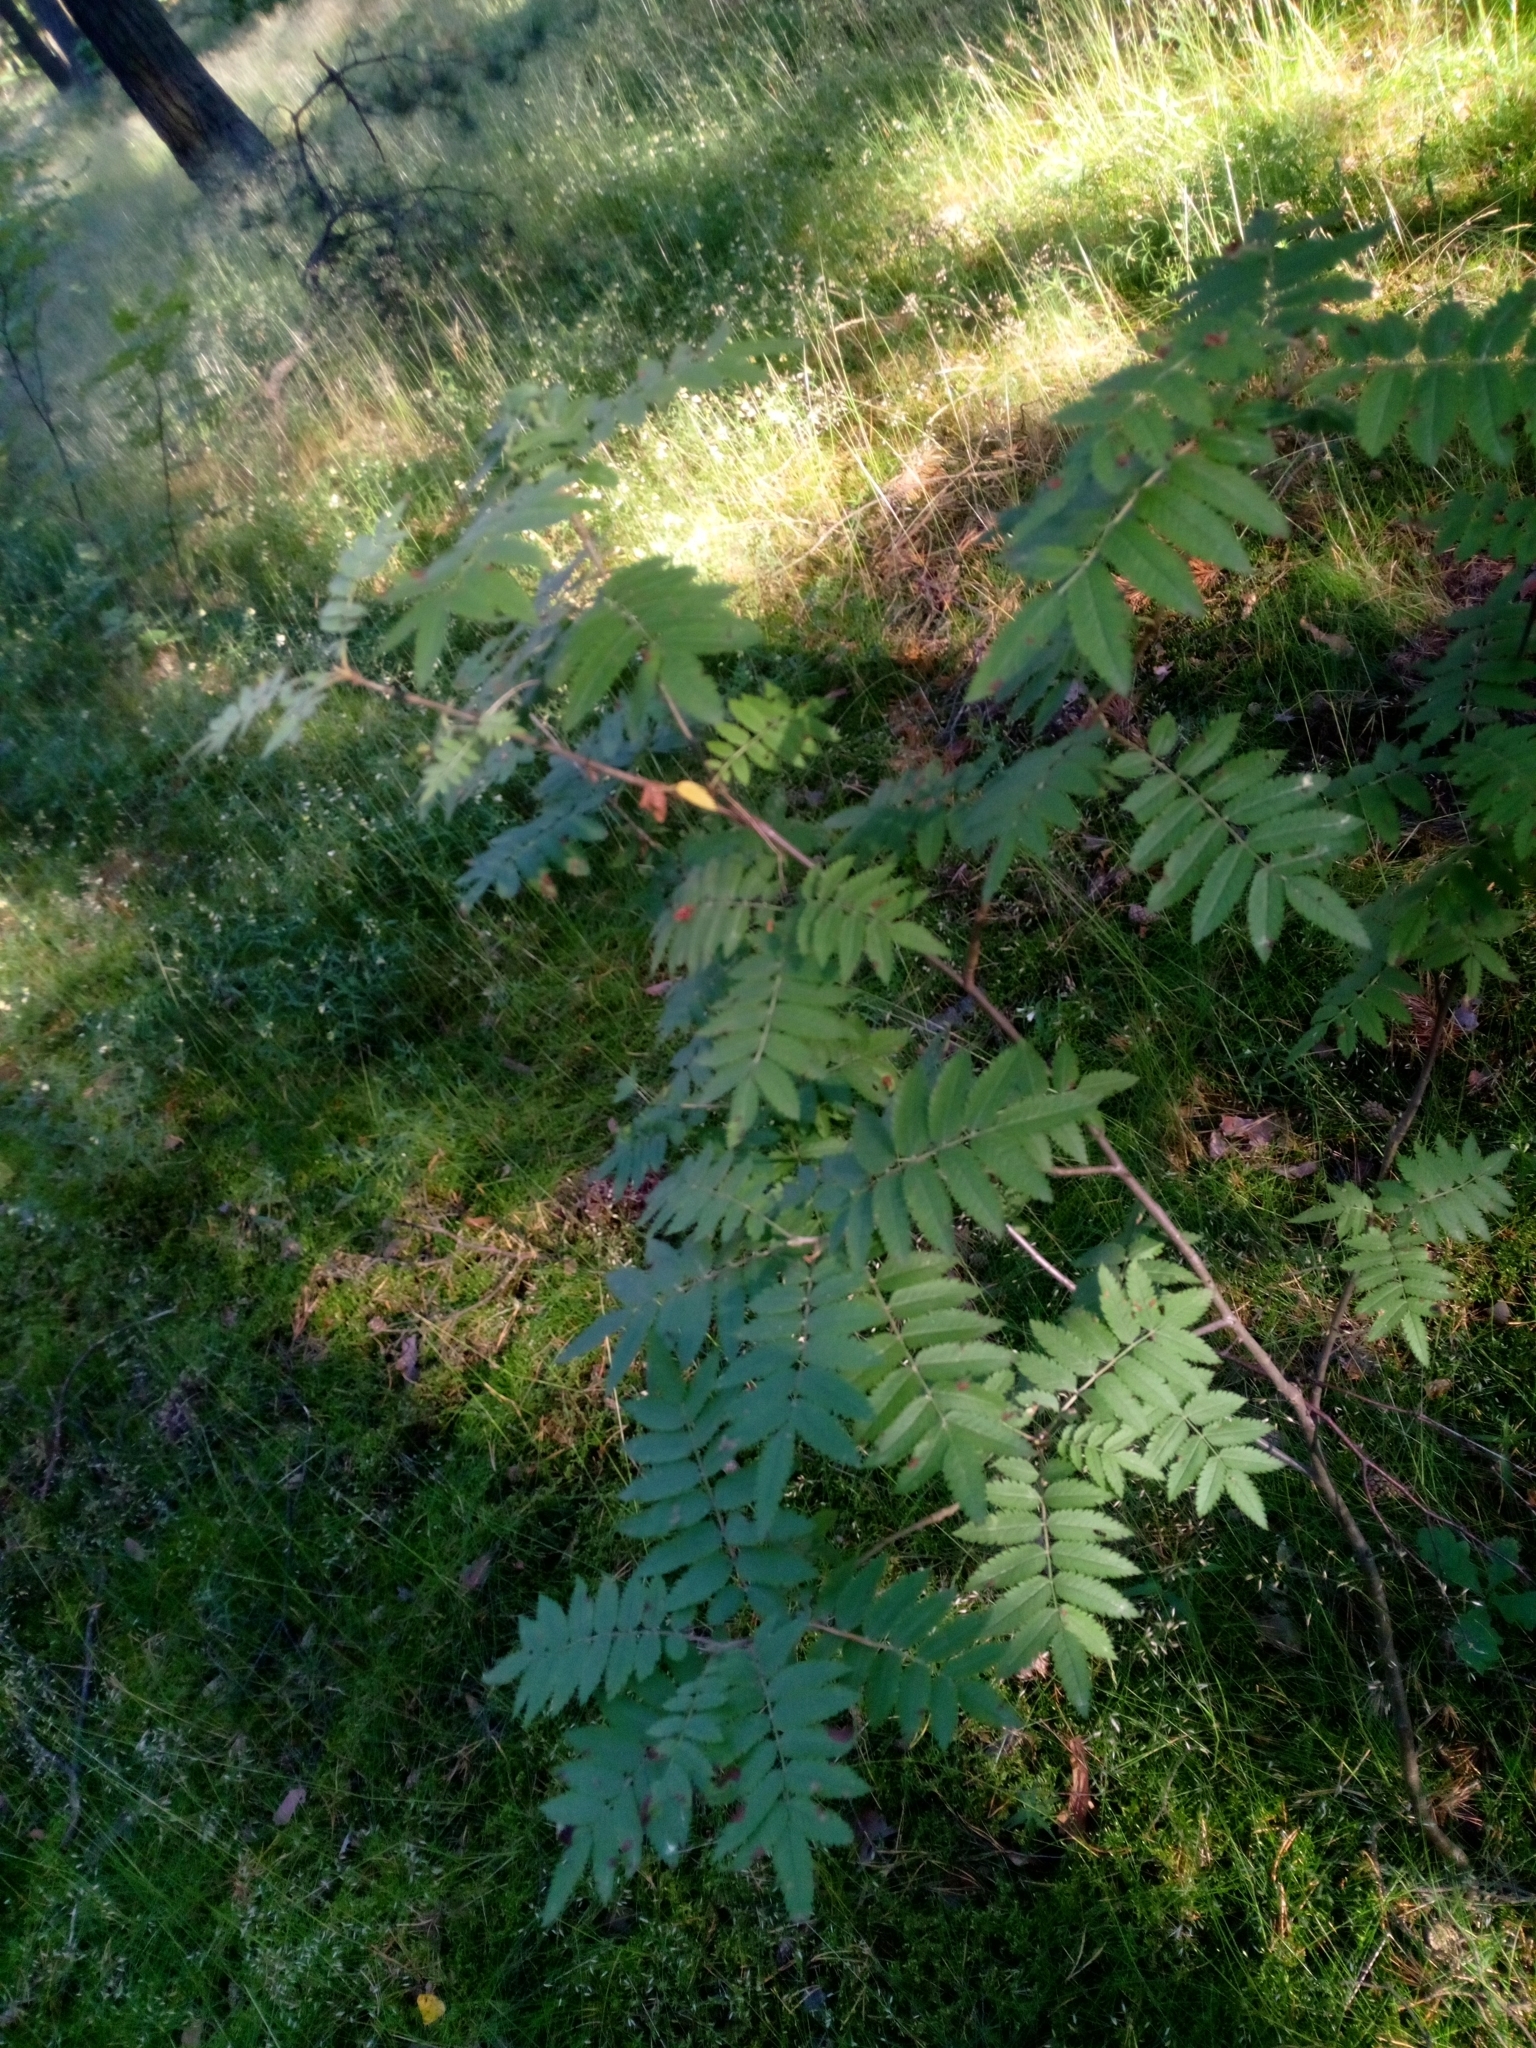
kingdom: Plantae
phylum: Tracheophyta
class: Magnoliopsida
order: Rosales
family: Rosaceae
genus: Sorbus
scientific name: Sorbus aucuparia
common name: Rowan
